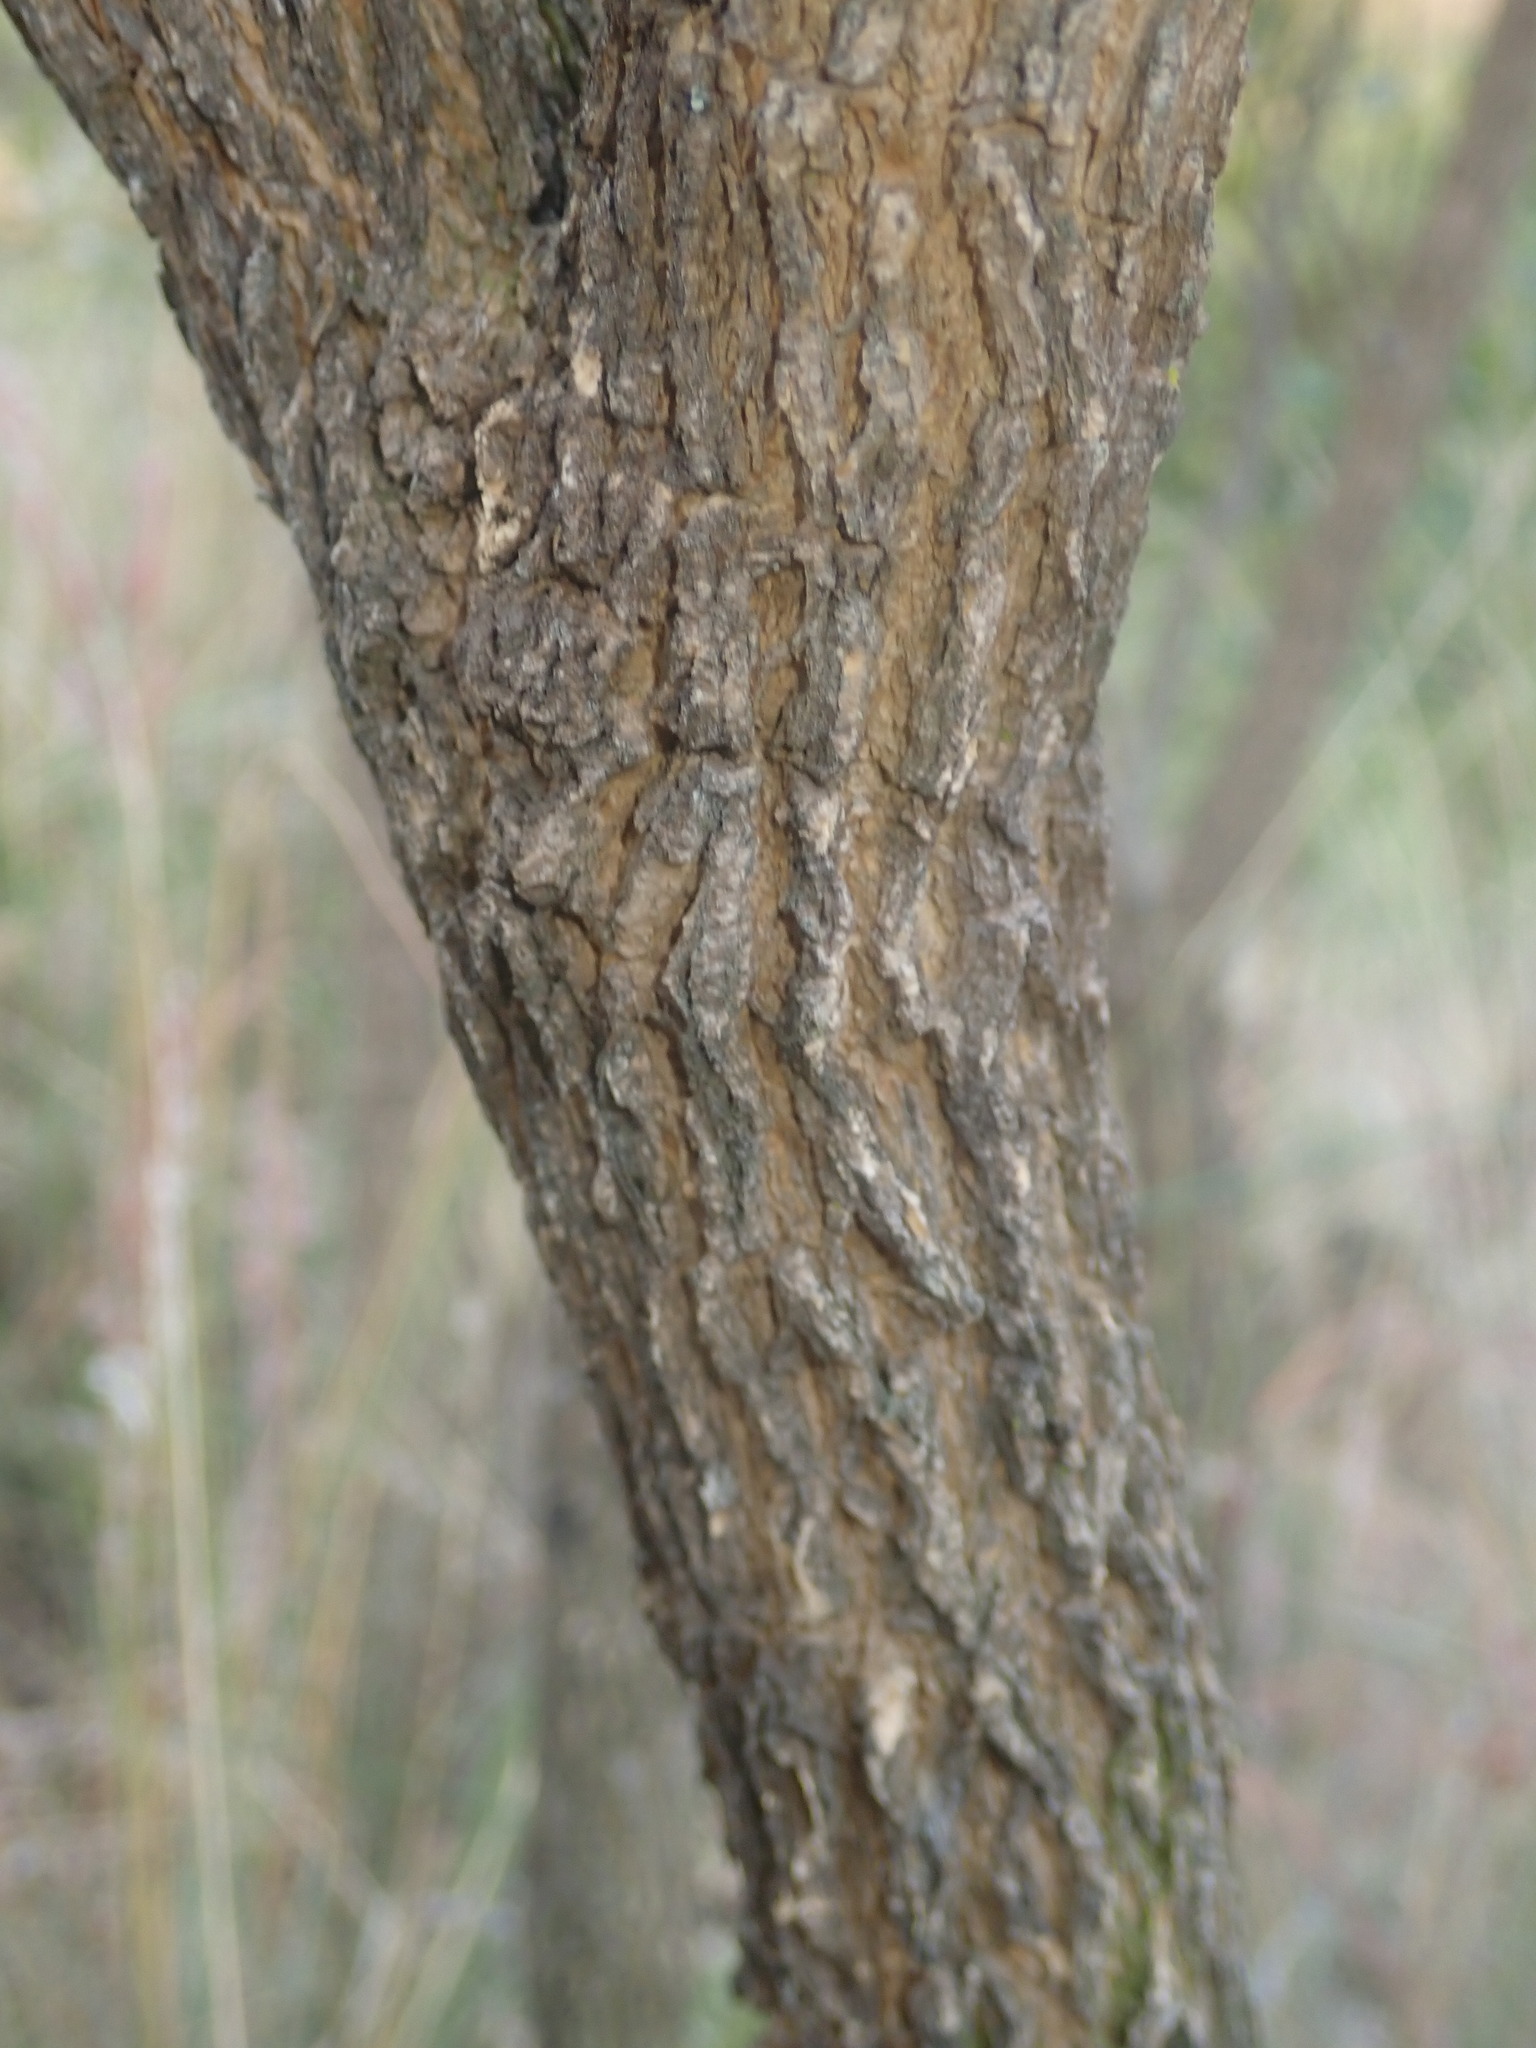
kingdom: Plantae
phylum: Tracheophyta
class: Magnoliopsida
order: Fabales
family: Fabaceae
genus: Mundulea
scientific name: Mundulea sericea
